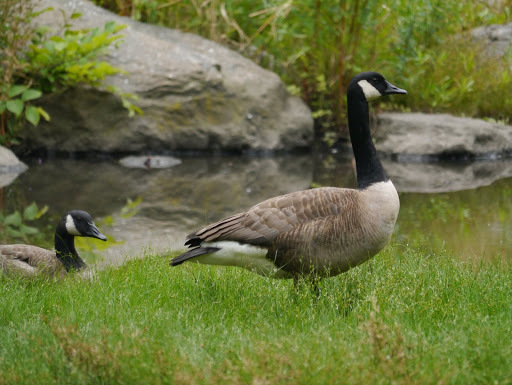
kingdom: Animalia
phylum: Chordata
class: Aves
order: Anseriformes
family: Anatidae
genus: Branta
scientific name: Branta canadensis
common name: Canada goose
